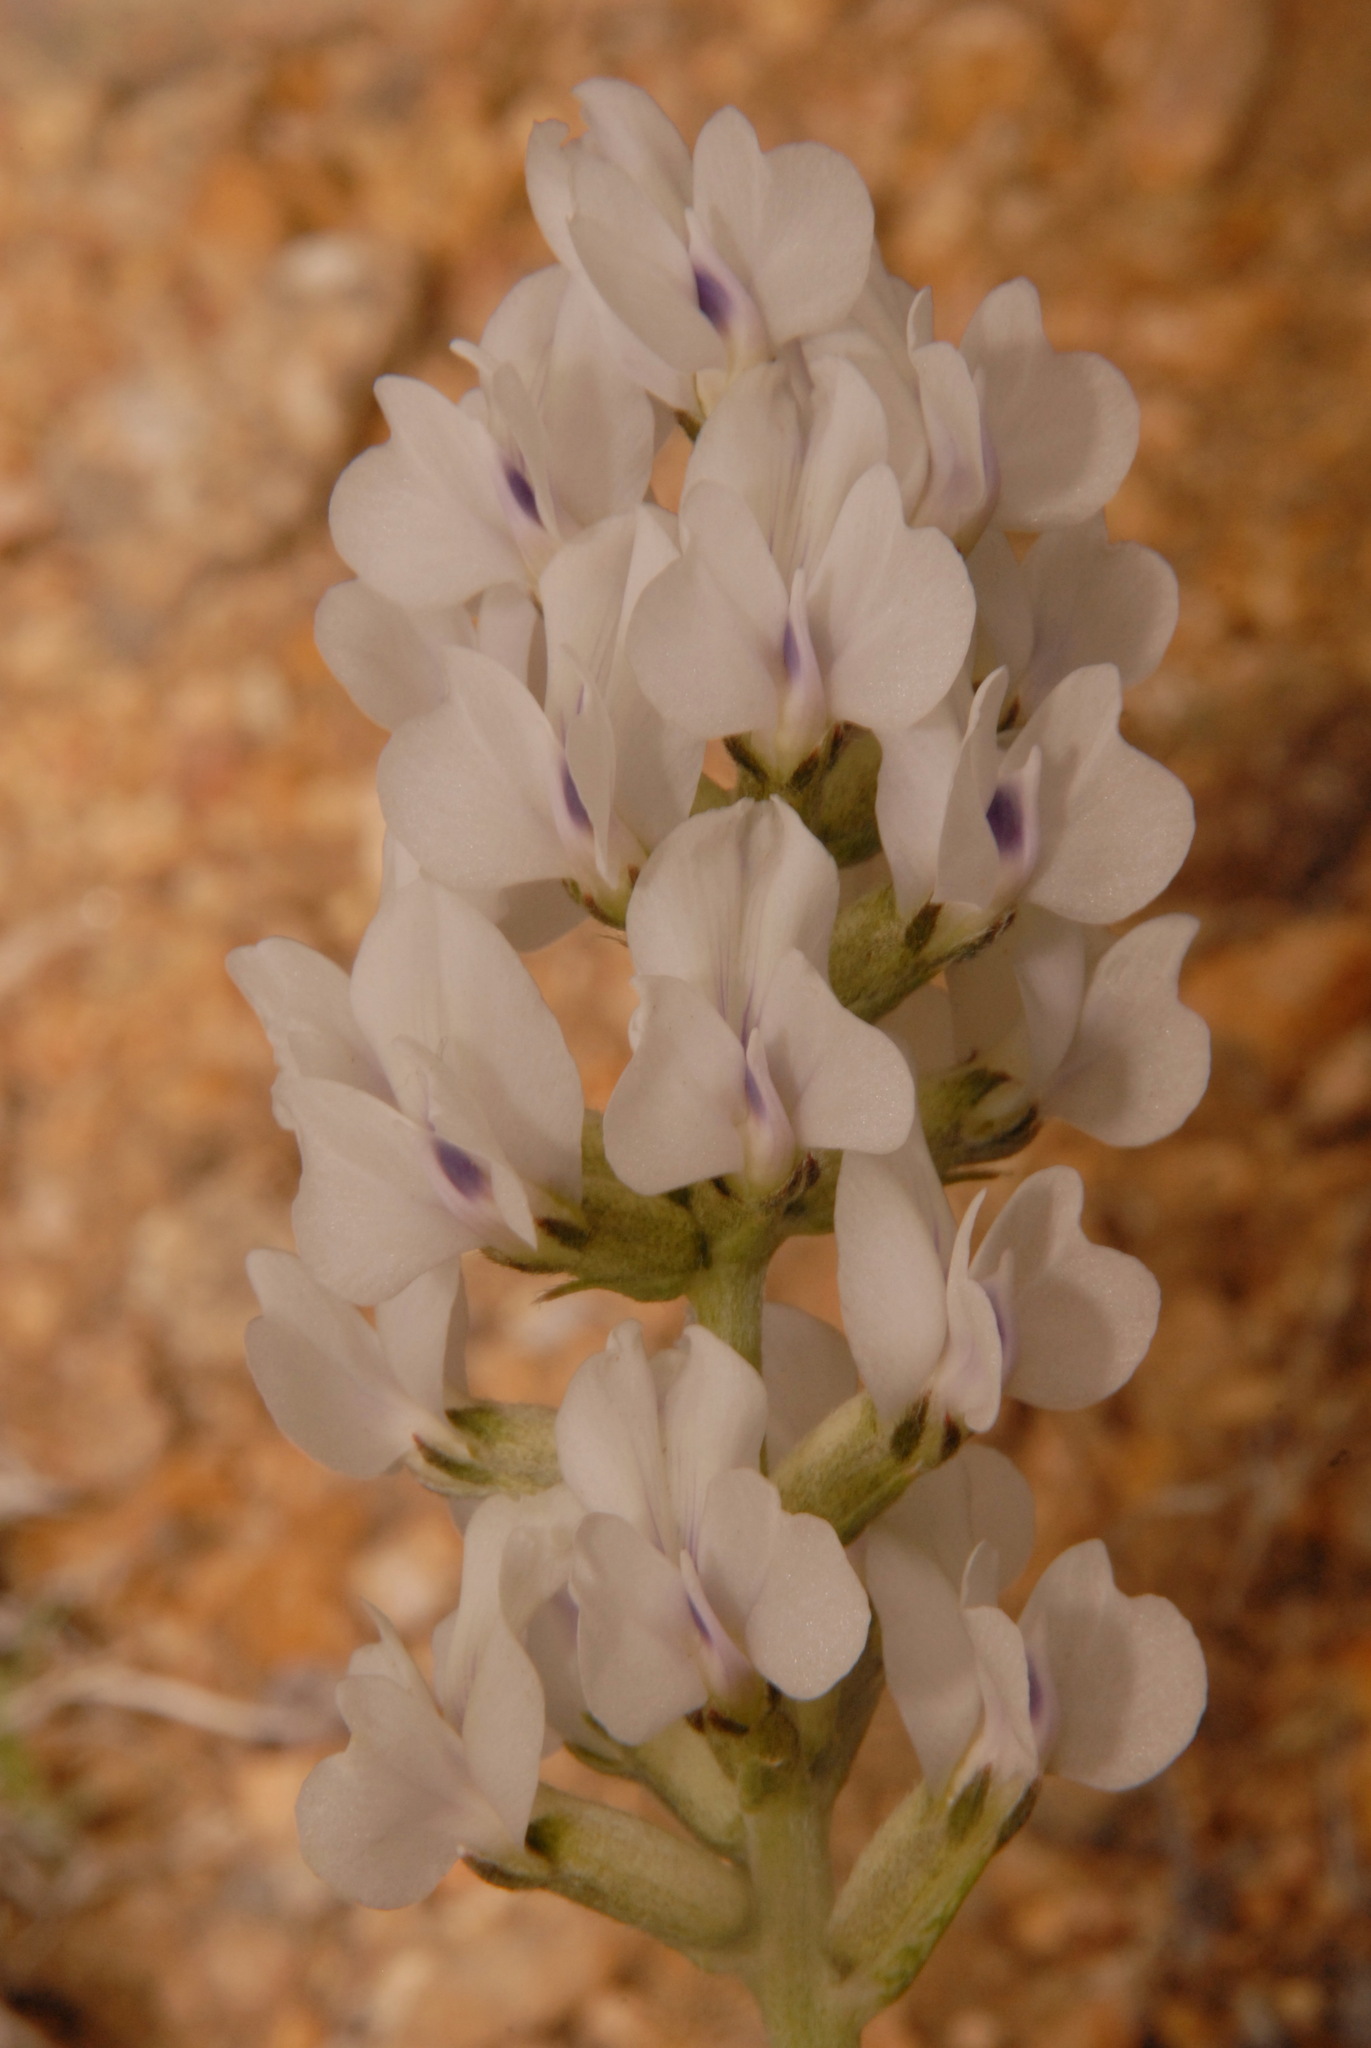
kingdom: Plantae
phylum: Tracheophyta
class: Magnoliopsida
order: Fabales
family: Fabaceae
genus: Oxytropis
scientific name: Oxytropis sericea
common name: Silky locoweed
